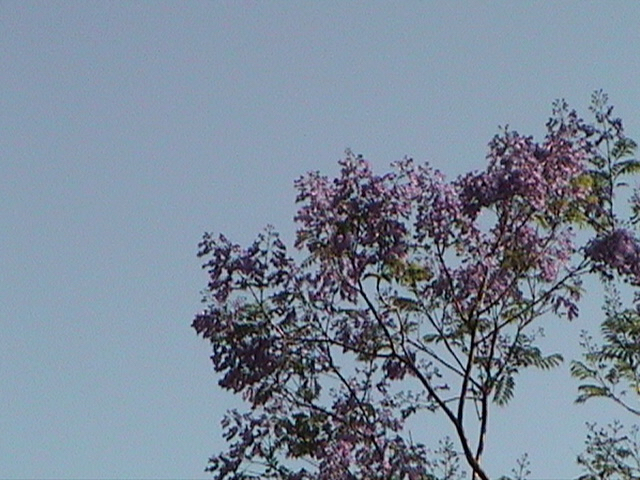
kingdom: Plantae
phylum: Tracheophyta
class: Magnoliopsida
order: Lamiales
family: Bignoniaceae
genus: Jacaranda
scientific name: Jacaranda mimosifolia
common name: Black poui
